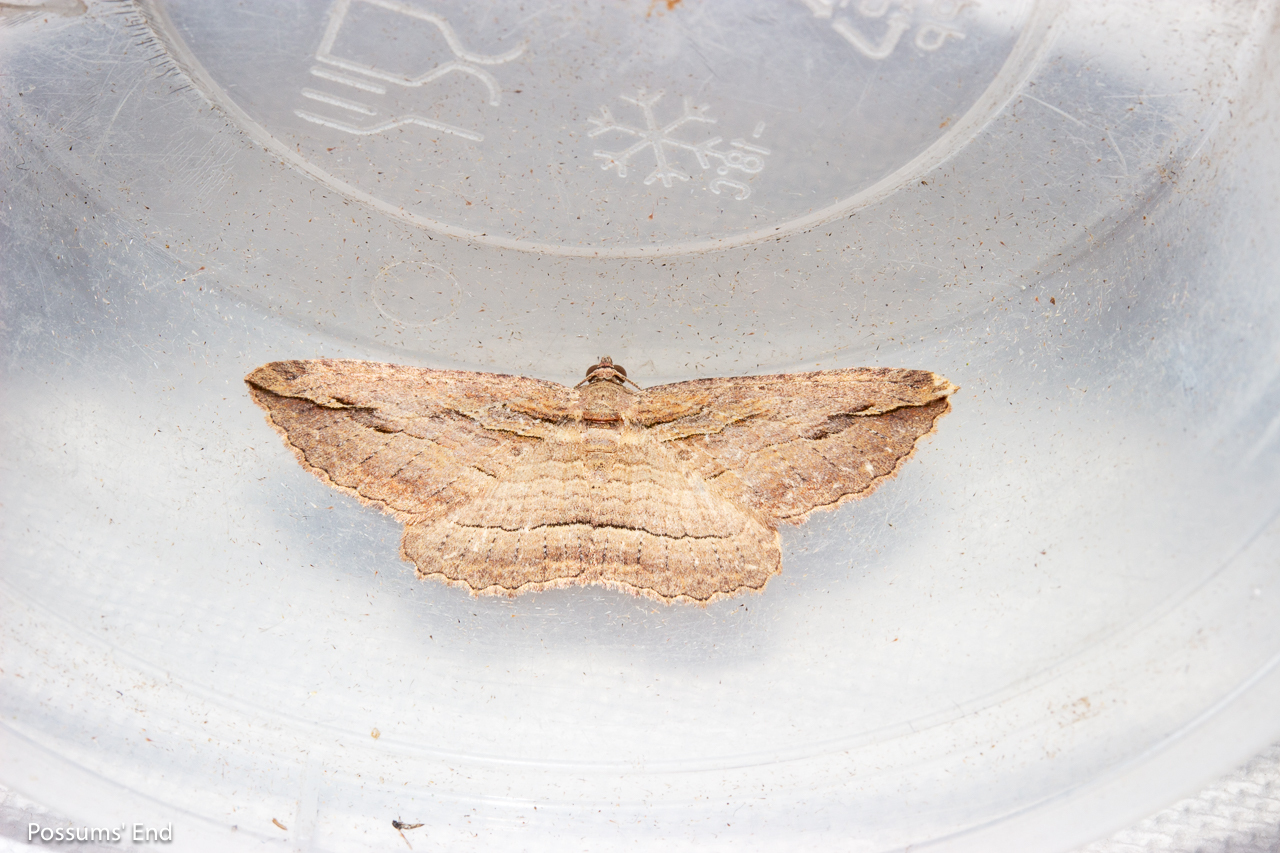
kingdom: Animalia
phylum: Arthropoda
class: Insecta
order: Lepidoptera
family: Geometridae
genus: Austrocidaria
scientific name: Austrocidaria gobiata
